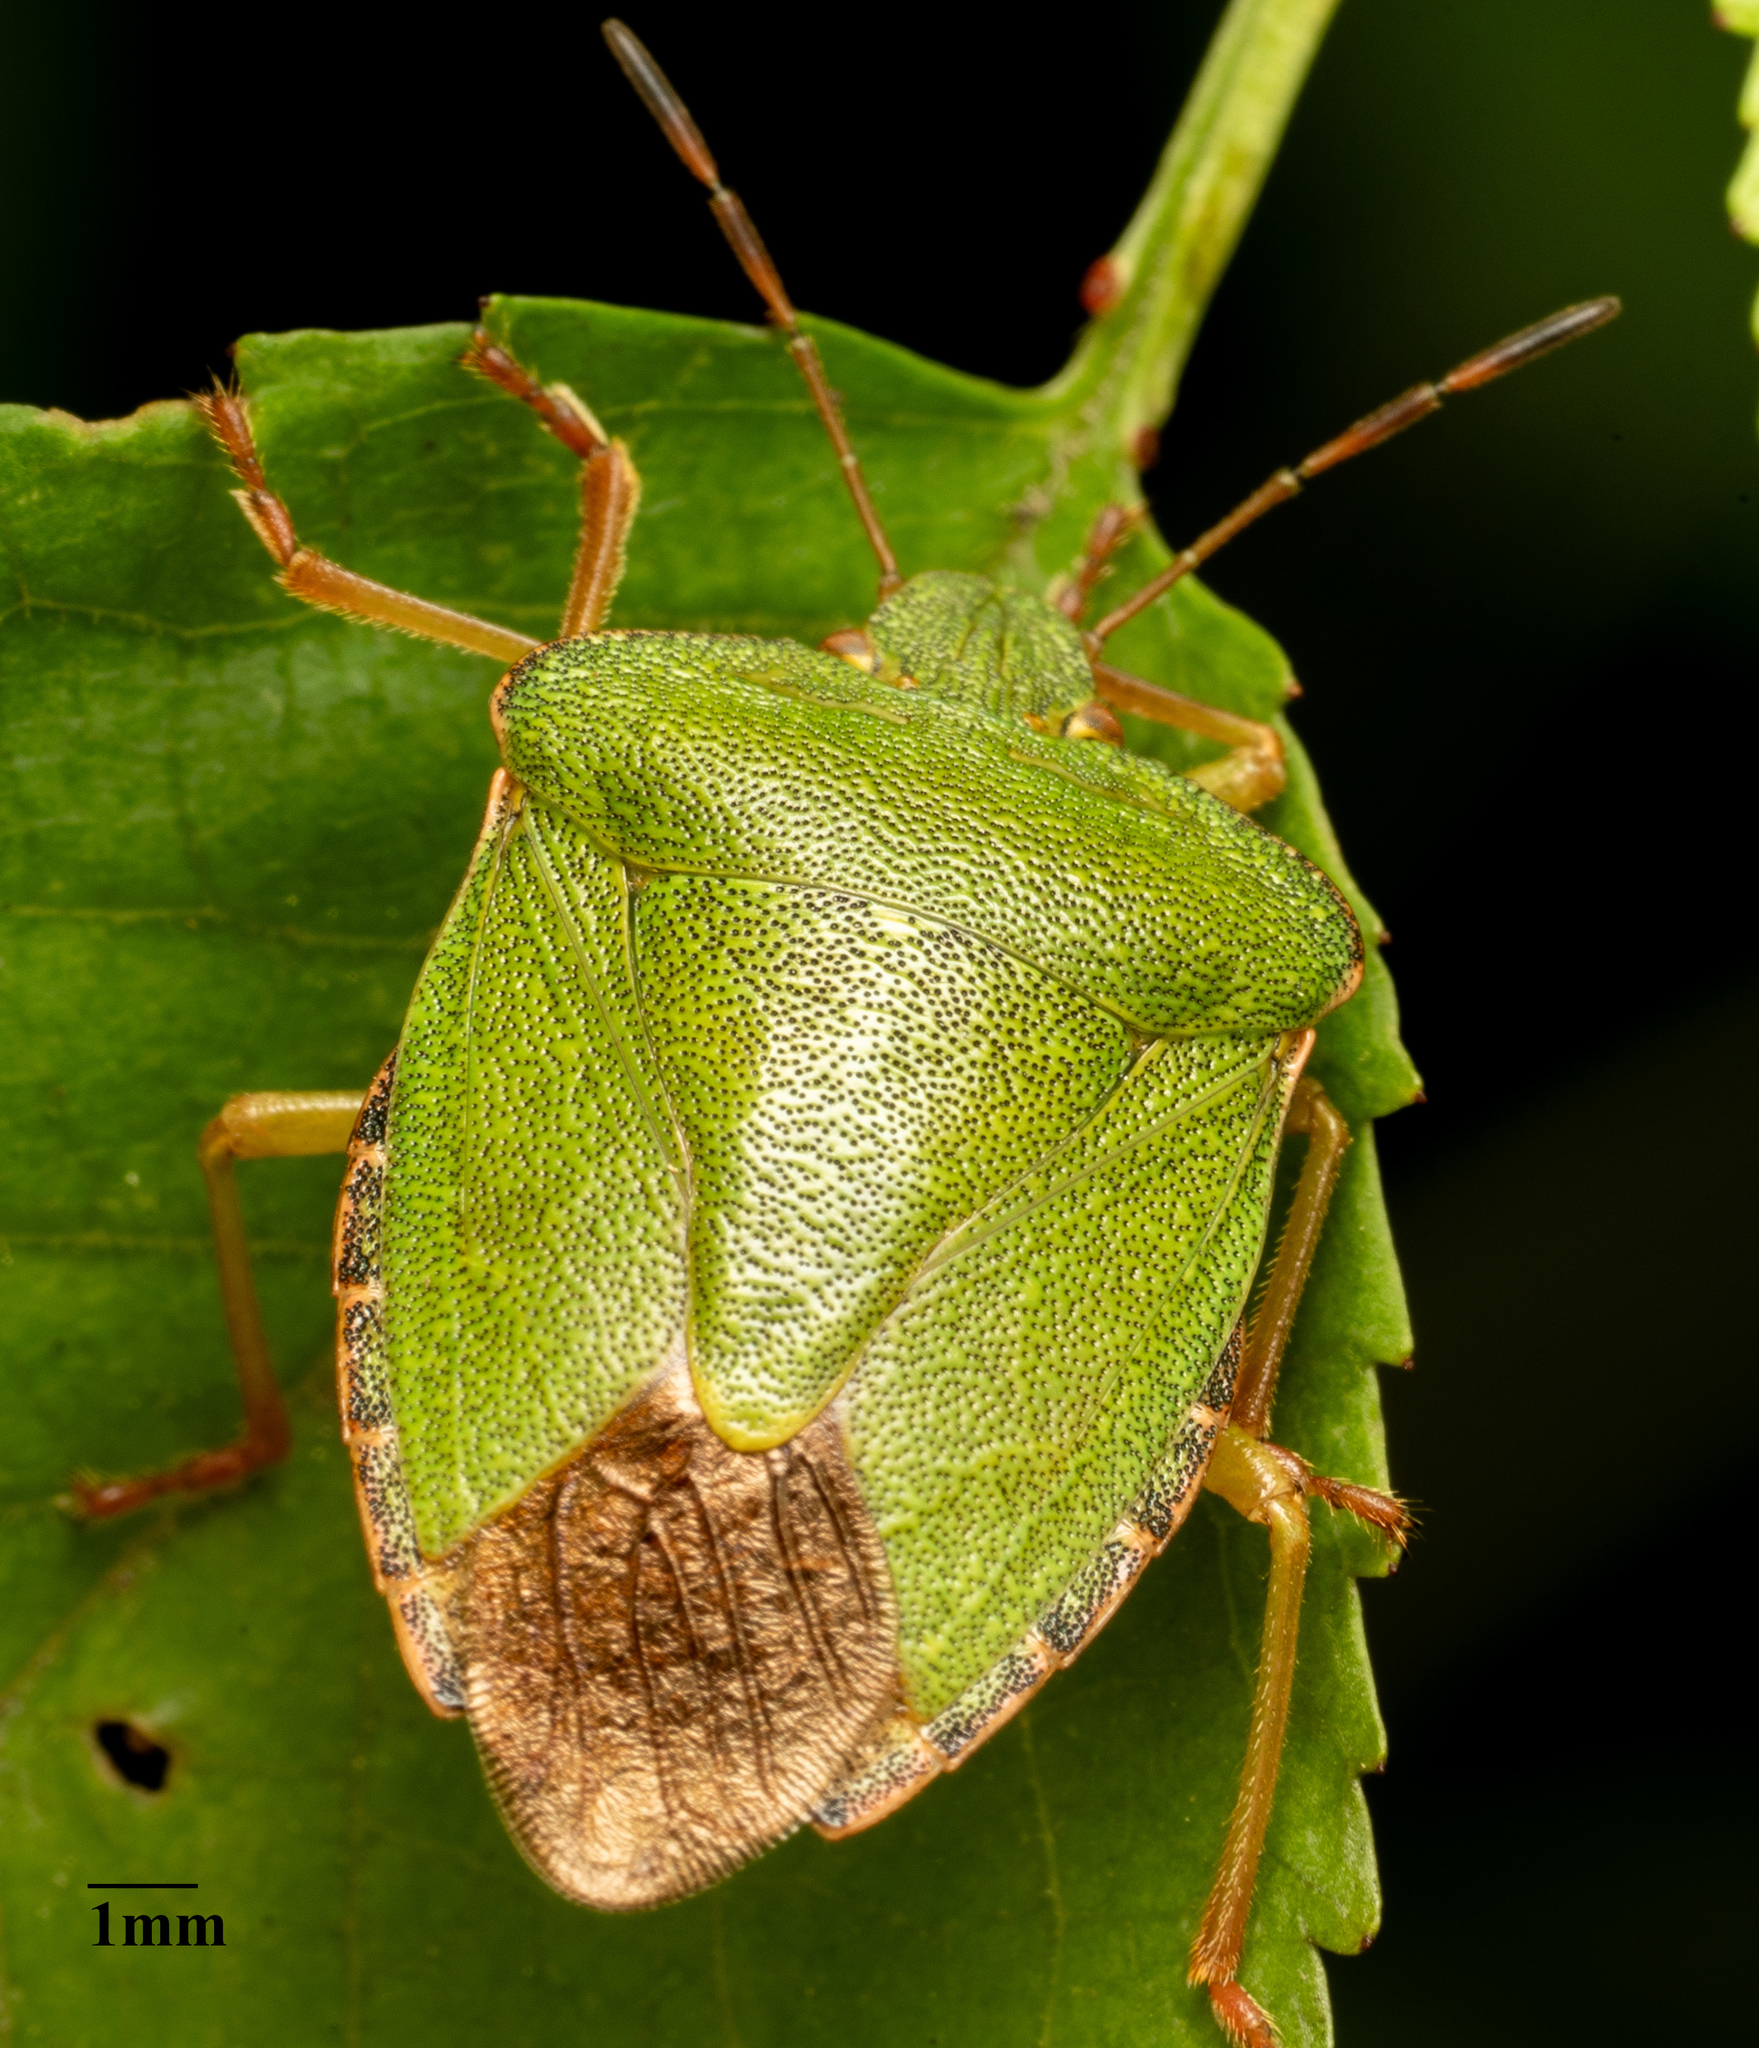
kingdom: Animalia
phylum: Arthropoda
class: Insecta
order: Hemiptera
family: Pentatomidae
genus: Palomena
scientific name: Palomena prasina
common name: Green shieldbug
